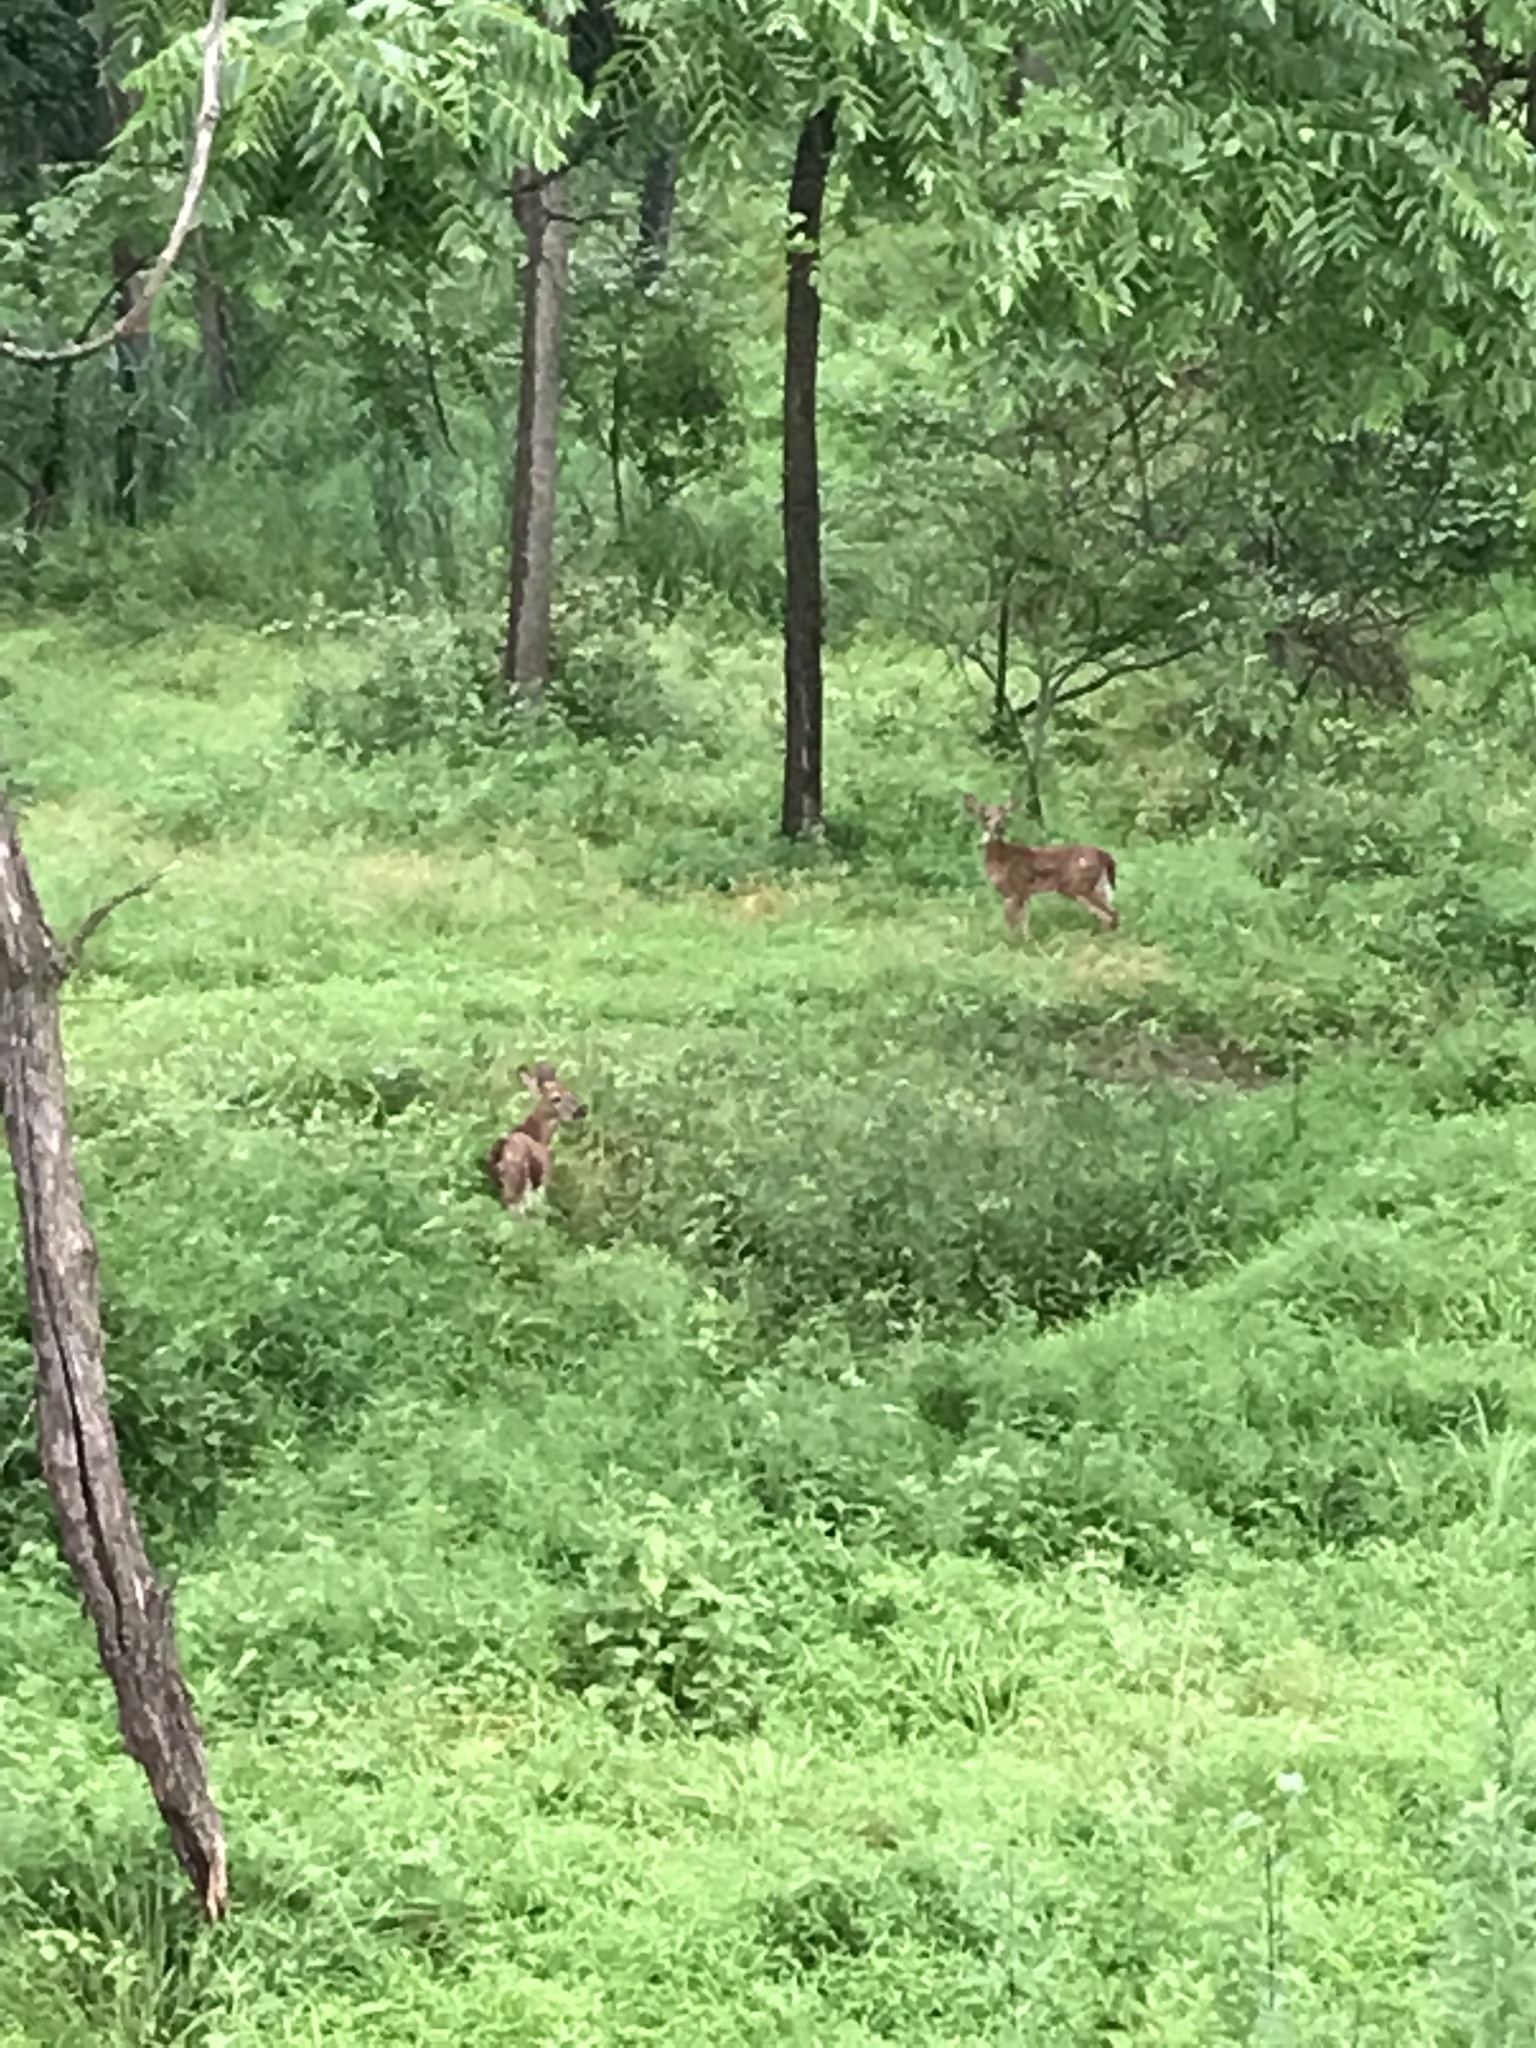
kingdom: Animalia
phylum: Chordata
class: Mammalia
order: Artiodactyla
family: Cervidae
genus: Odocoileus
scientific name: Odocoileus virginianus
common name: White-tailed deer
